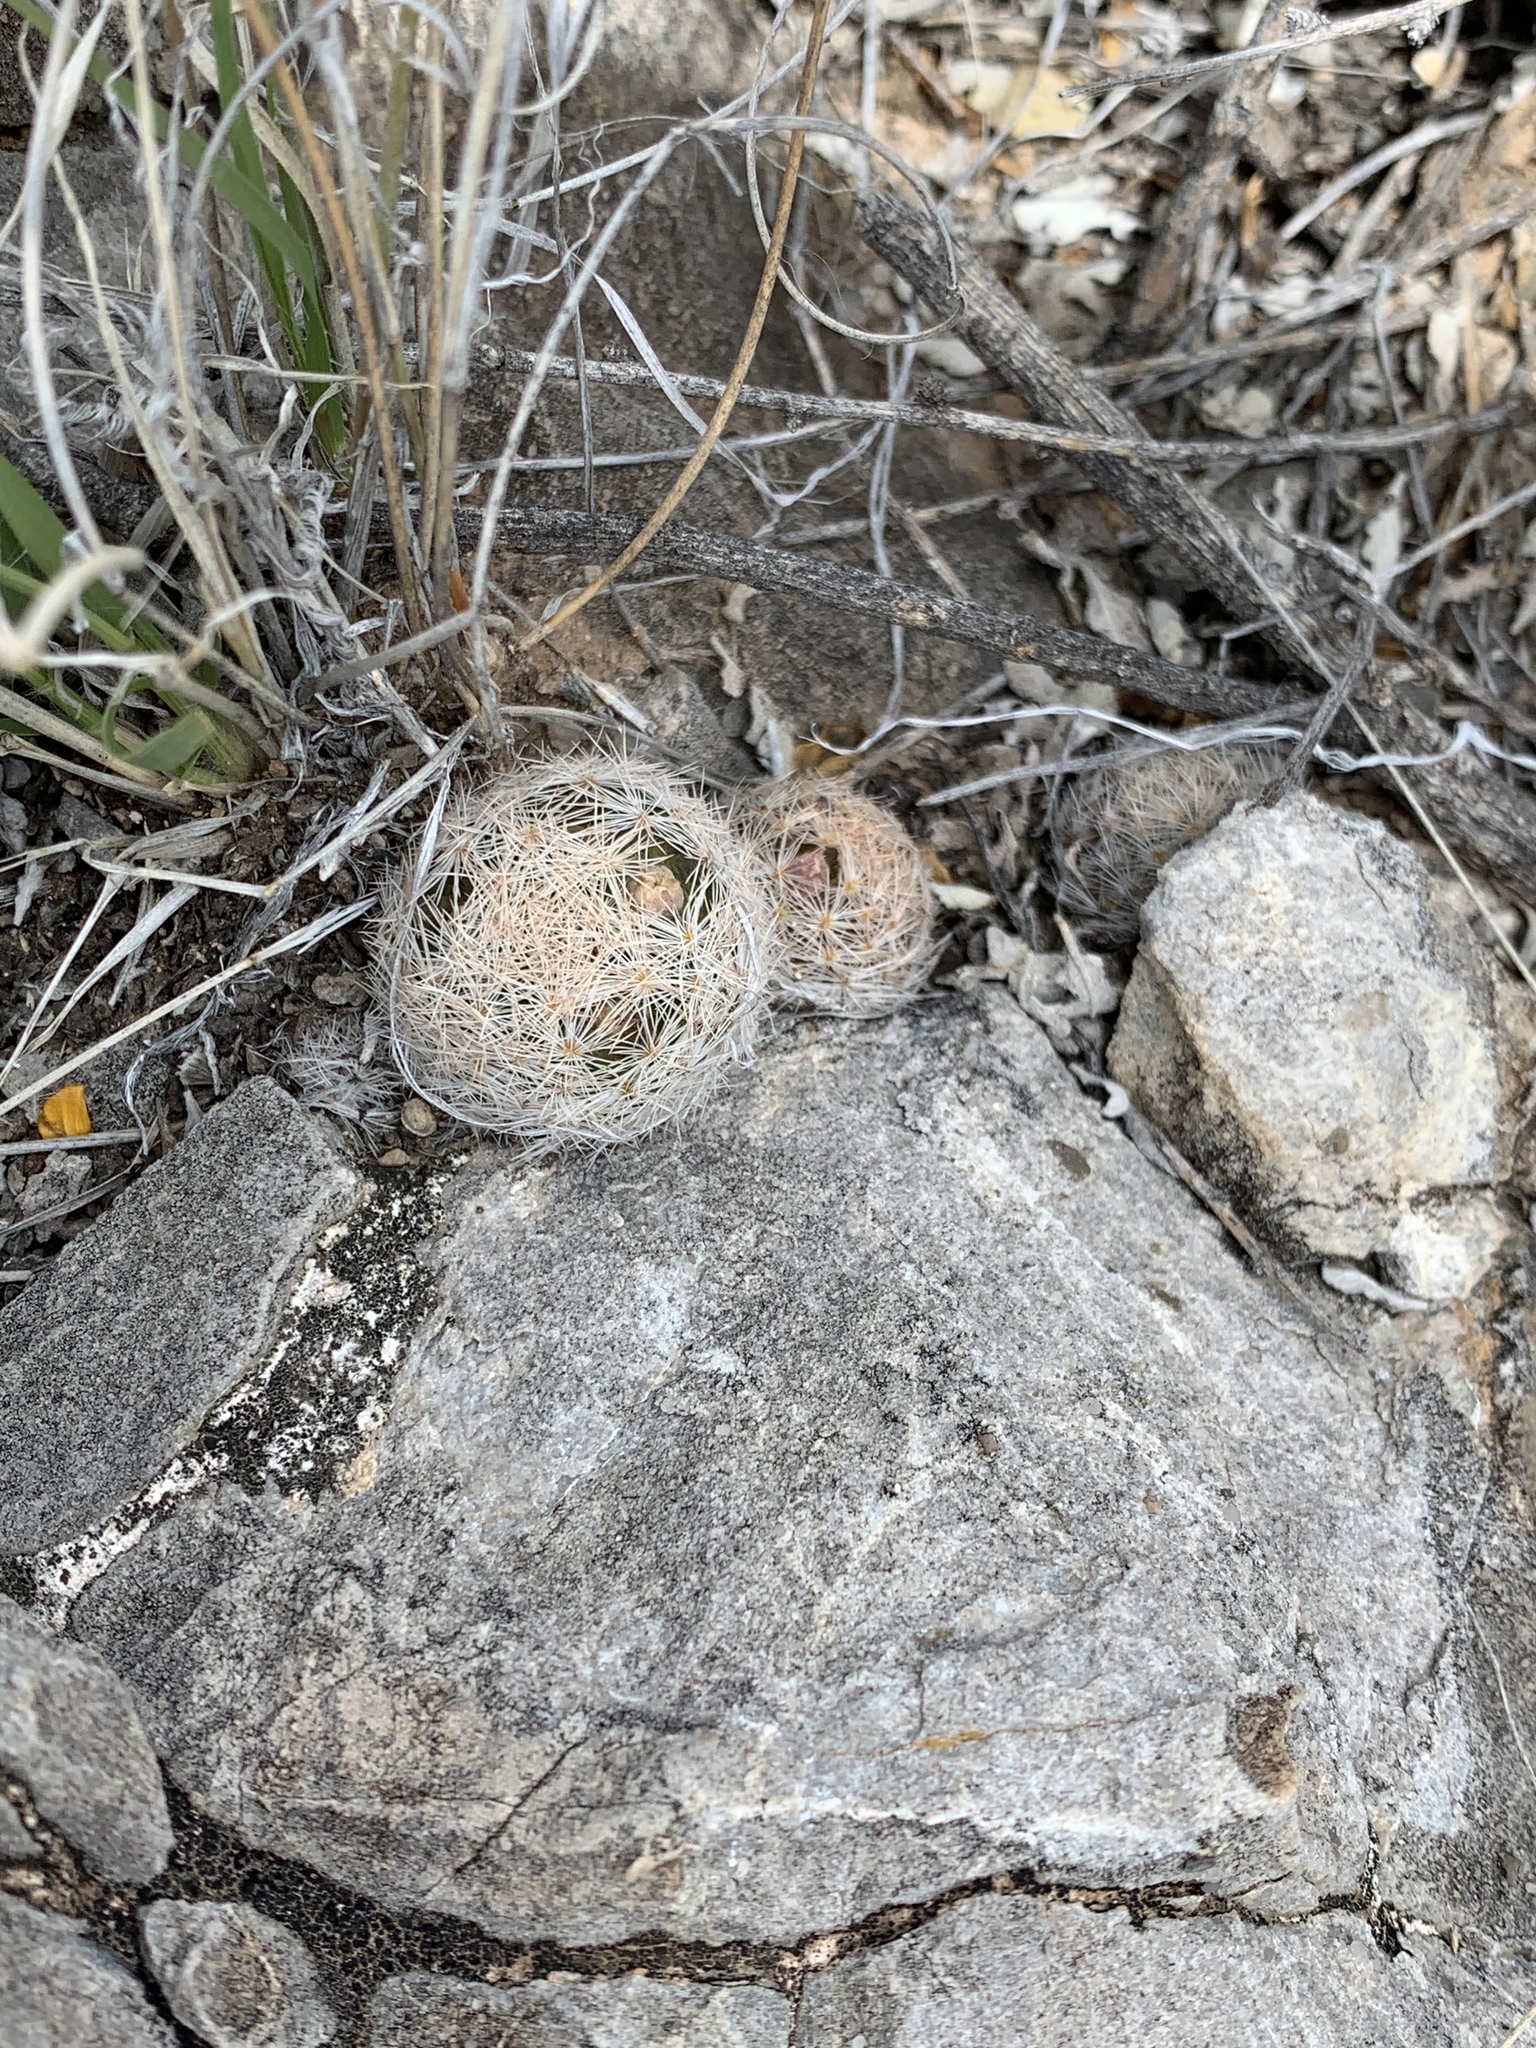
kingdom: Plantae
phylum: Tracheophyta
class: Magnoliopsida
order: Caryophyllales
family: Cactaceae
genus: Mammillaria
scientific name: Mammillaria lasiacantha
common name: Lace-spine nipple cactus
